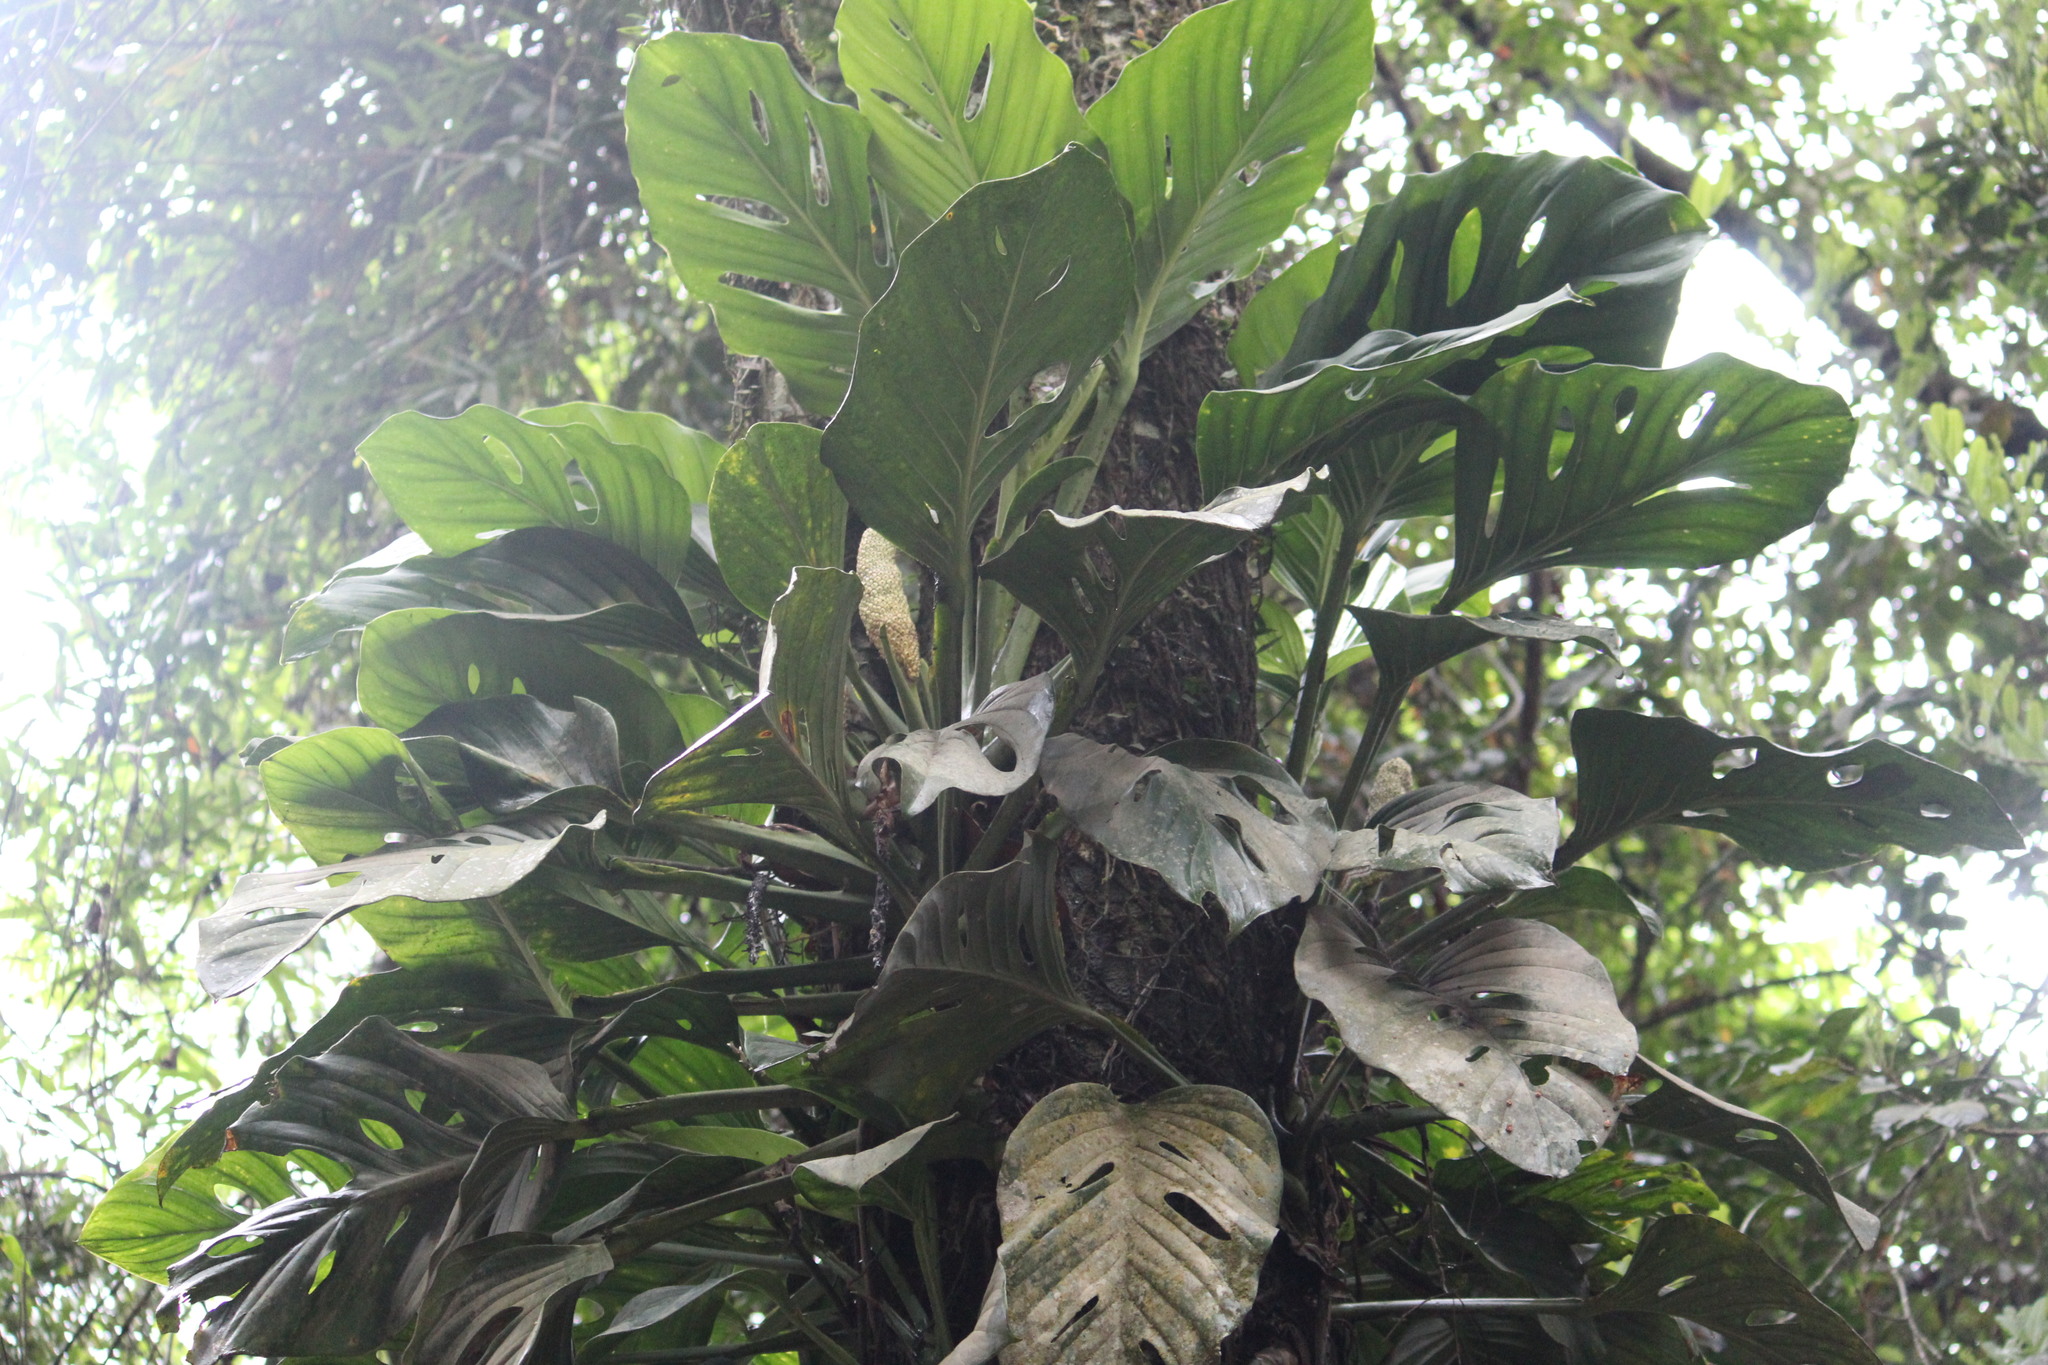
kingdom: Plantae
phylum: Tracheophyta
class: Liliopsida
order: Alismatales
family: Araceae
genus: Monstera
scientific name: Monstera adansonii
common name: Tarovine
